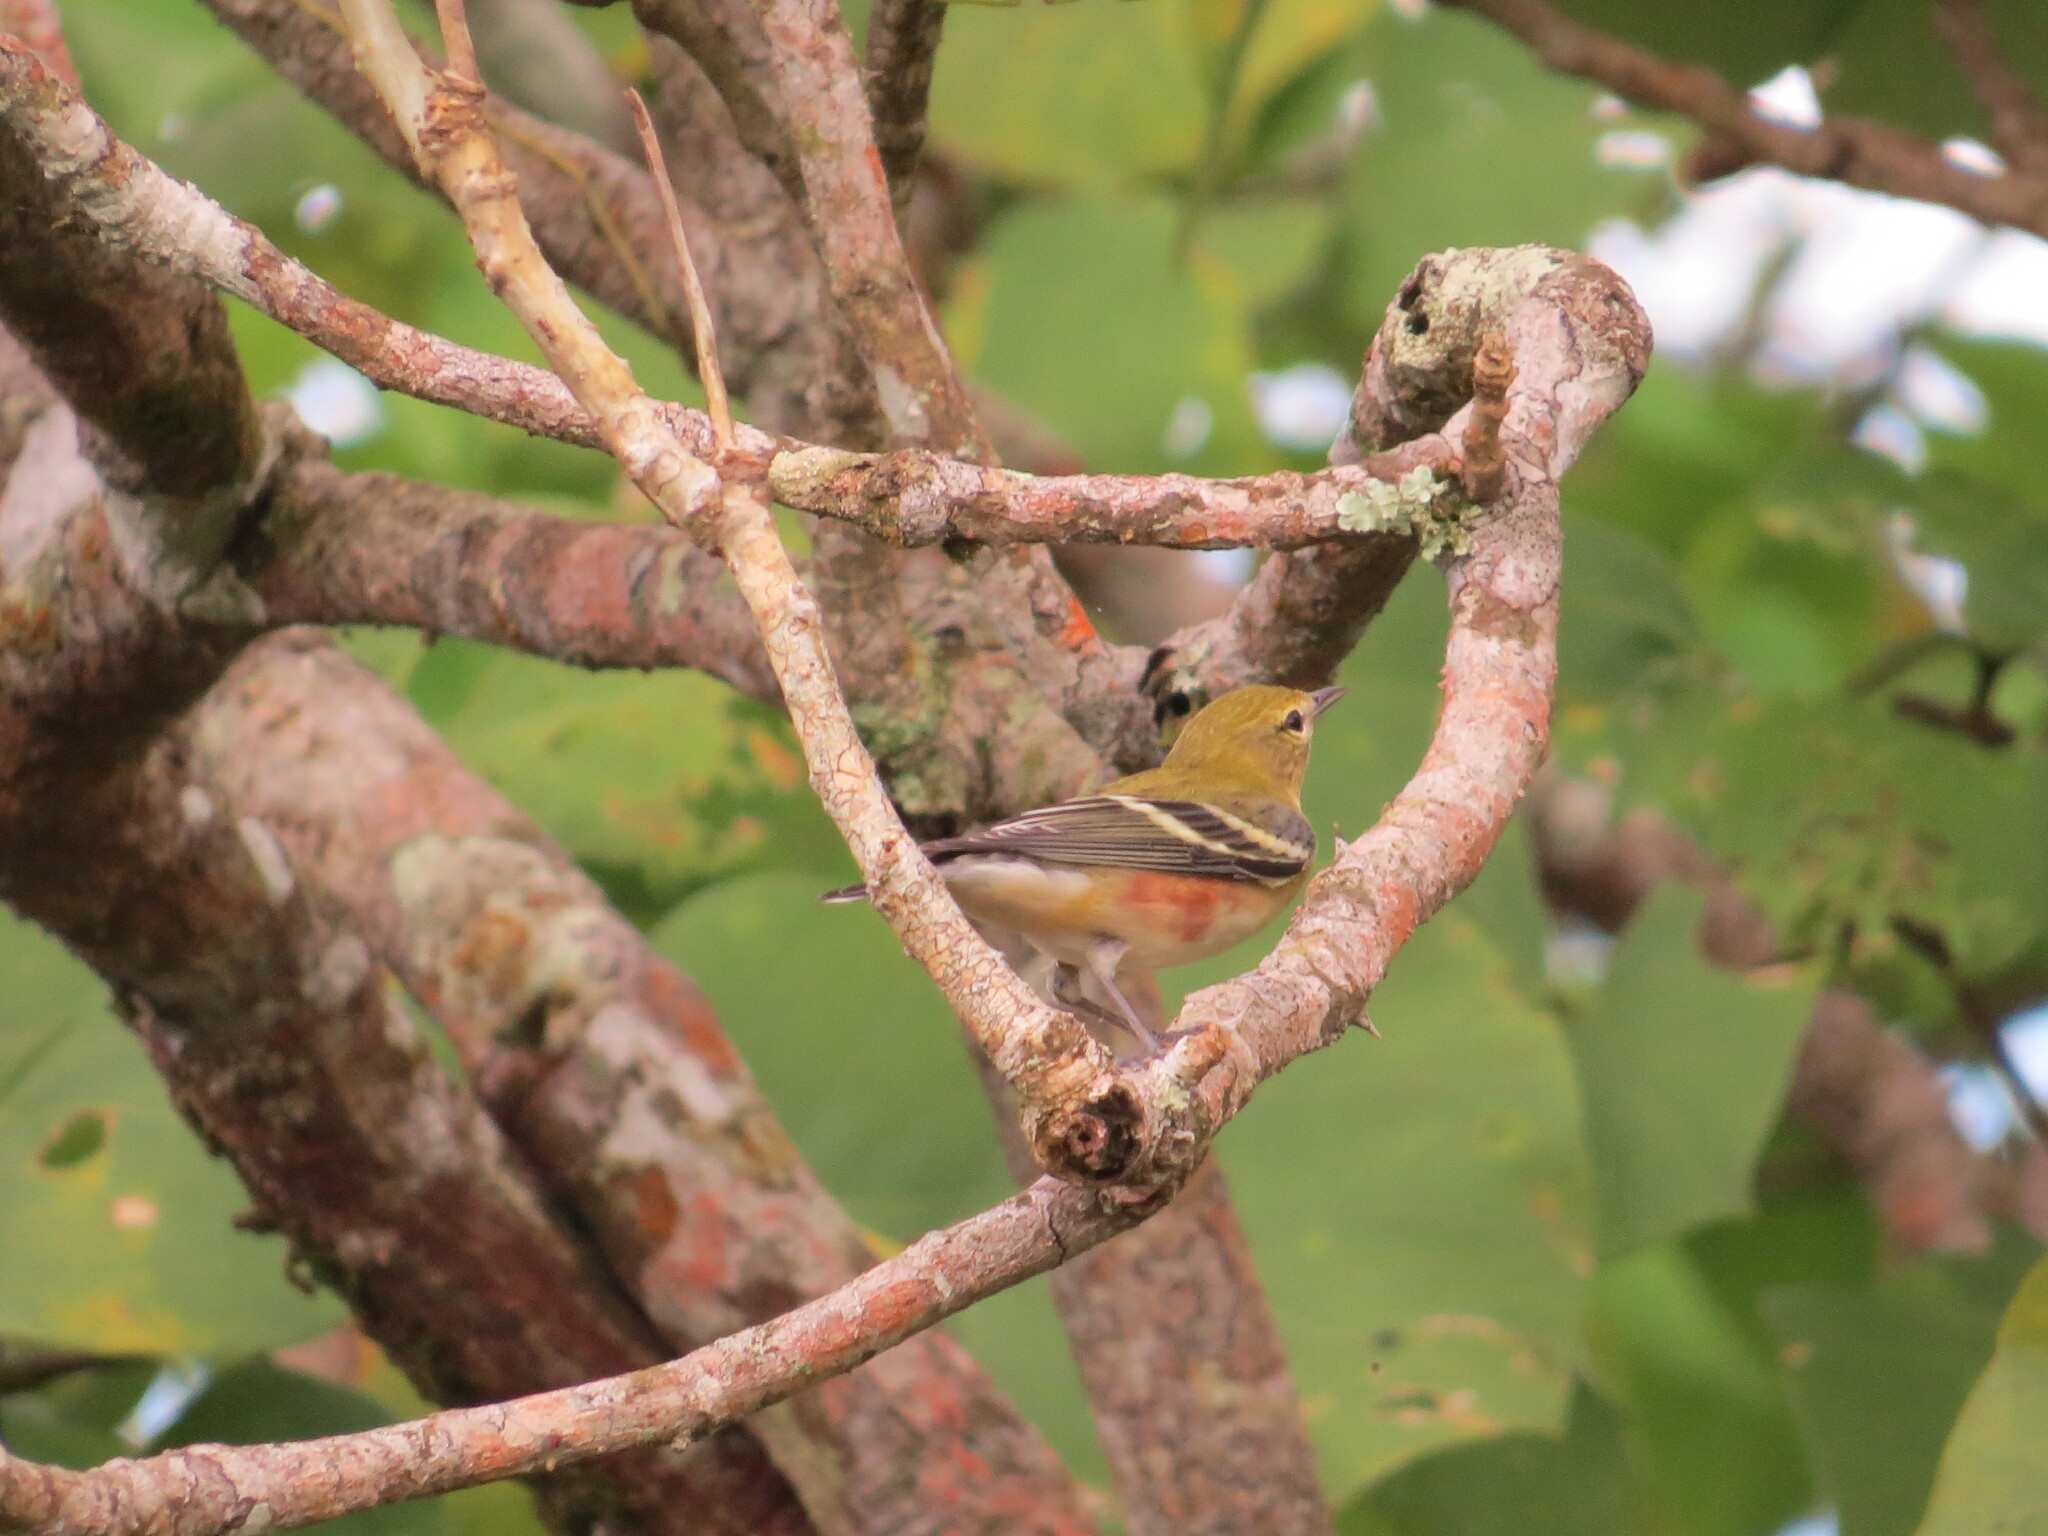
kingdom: Animalia
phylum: Chordata
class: Aves
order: Passeriformes
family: Parulidae
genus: Setophaga
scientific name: Setophaga castanea
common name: Bay-breasted warbler
